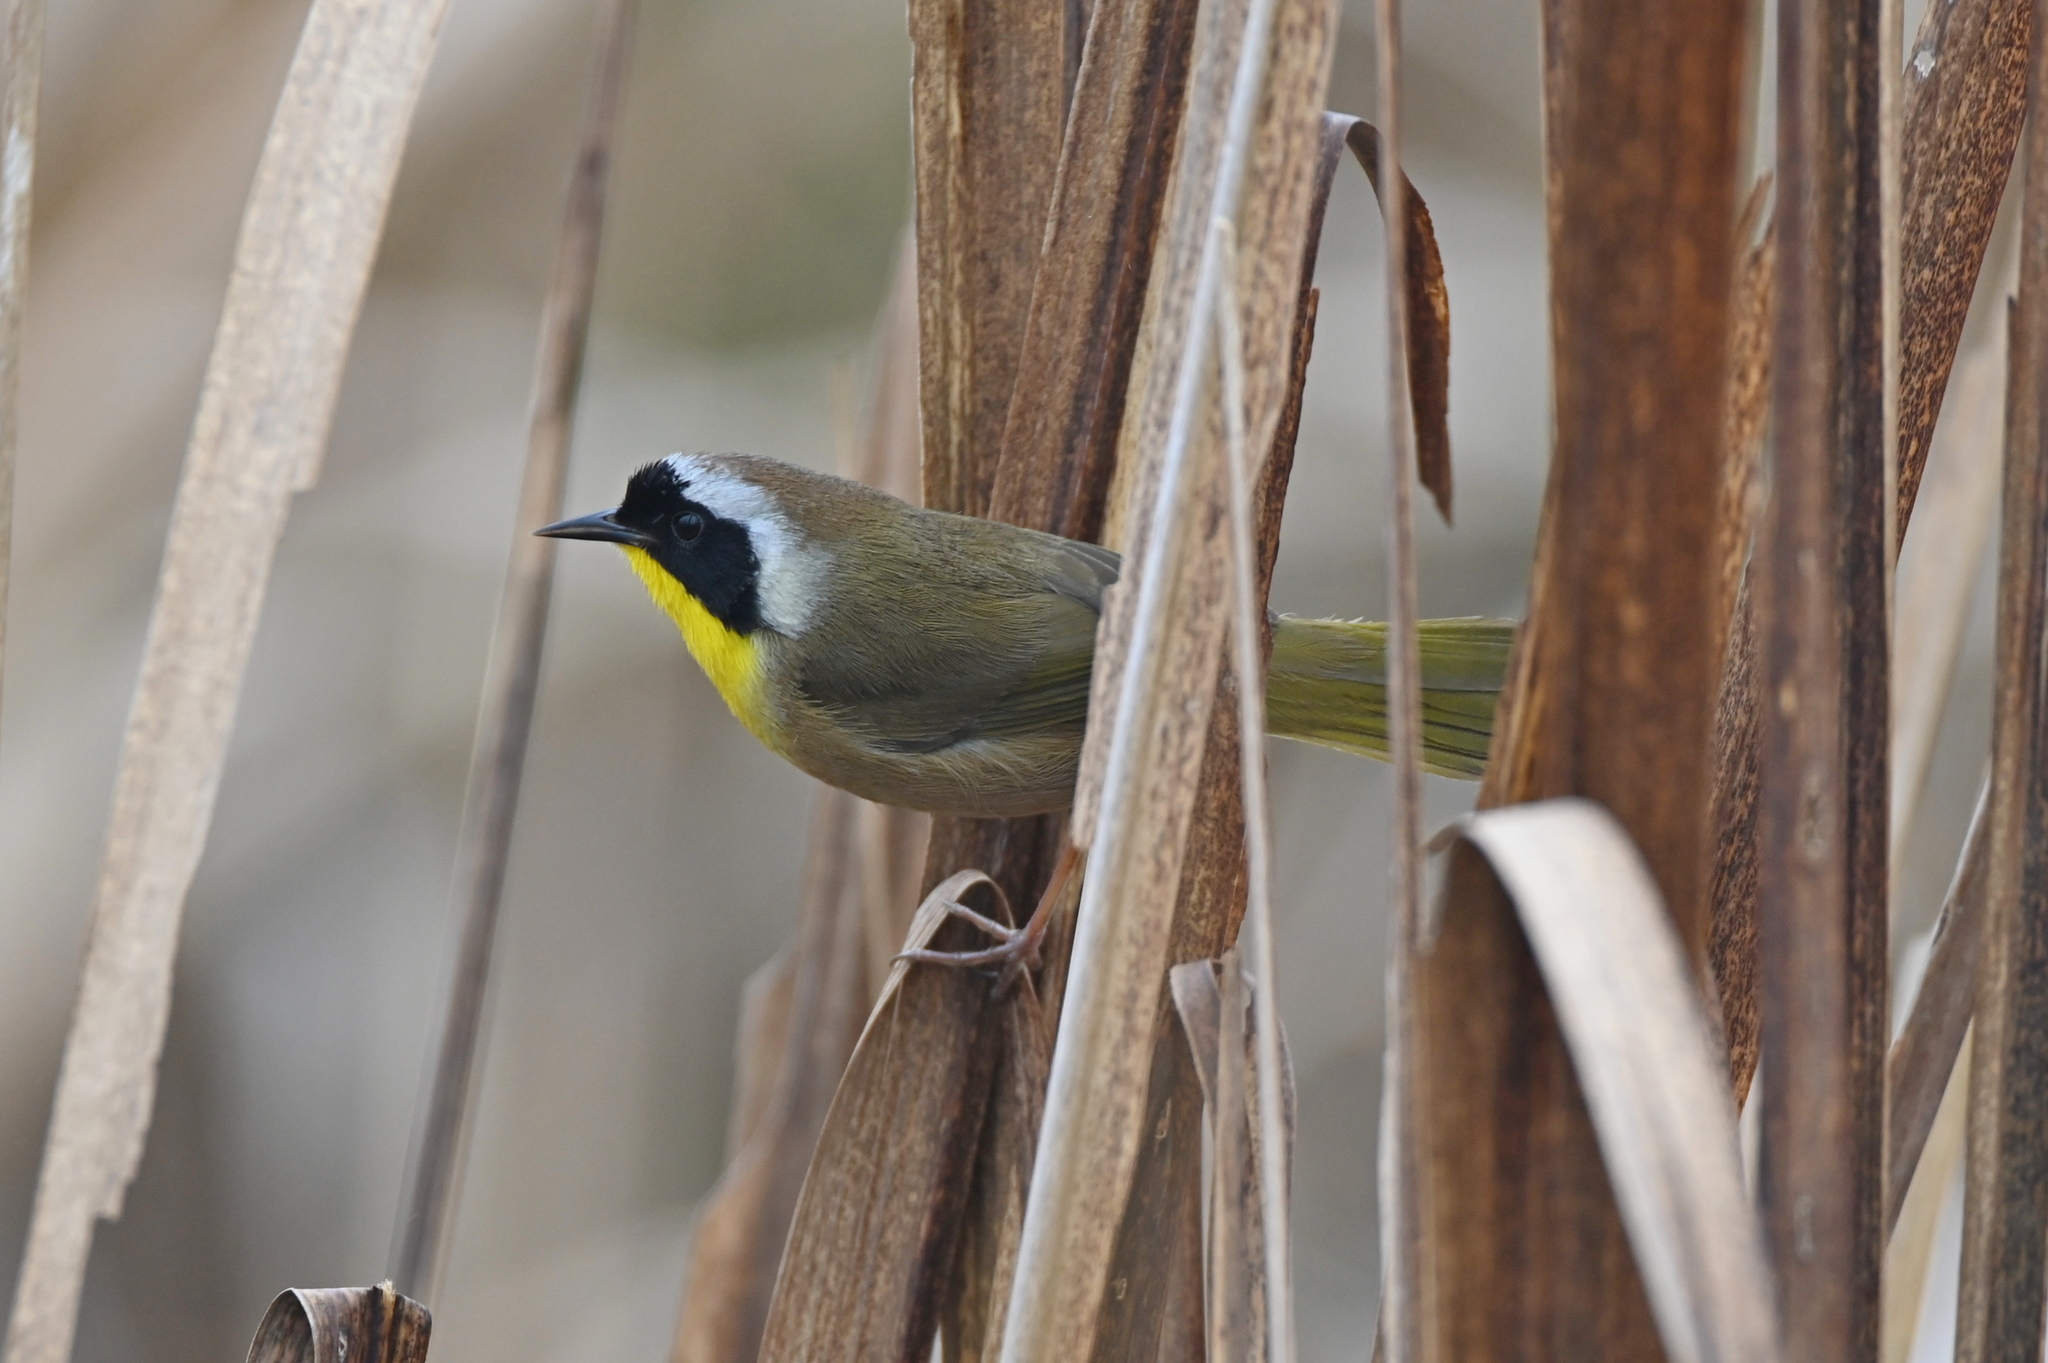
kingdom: Animalia
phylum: Chordata
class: Aves
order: Passeriformes
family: Parulidae
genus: Geothlypis
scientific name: Geothlypis trichas
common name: Common yellowthroat
